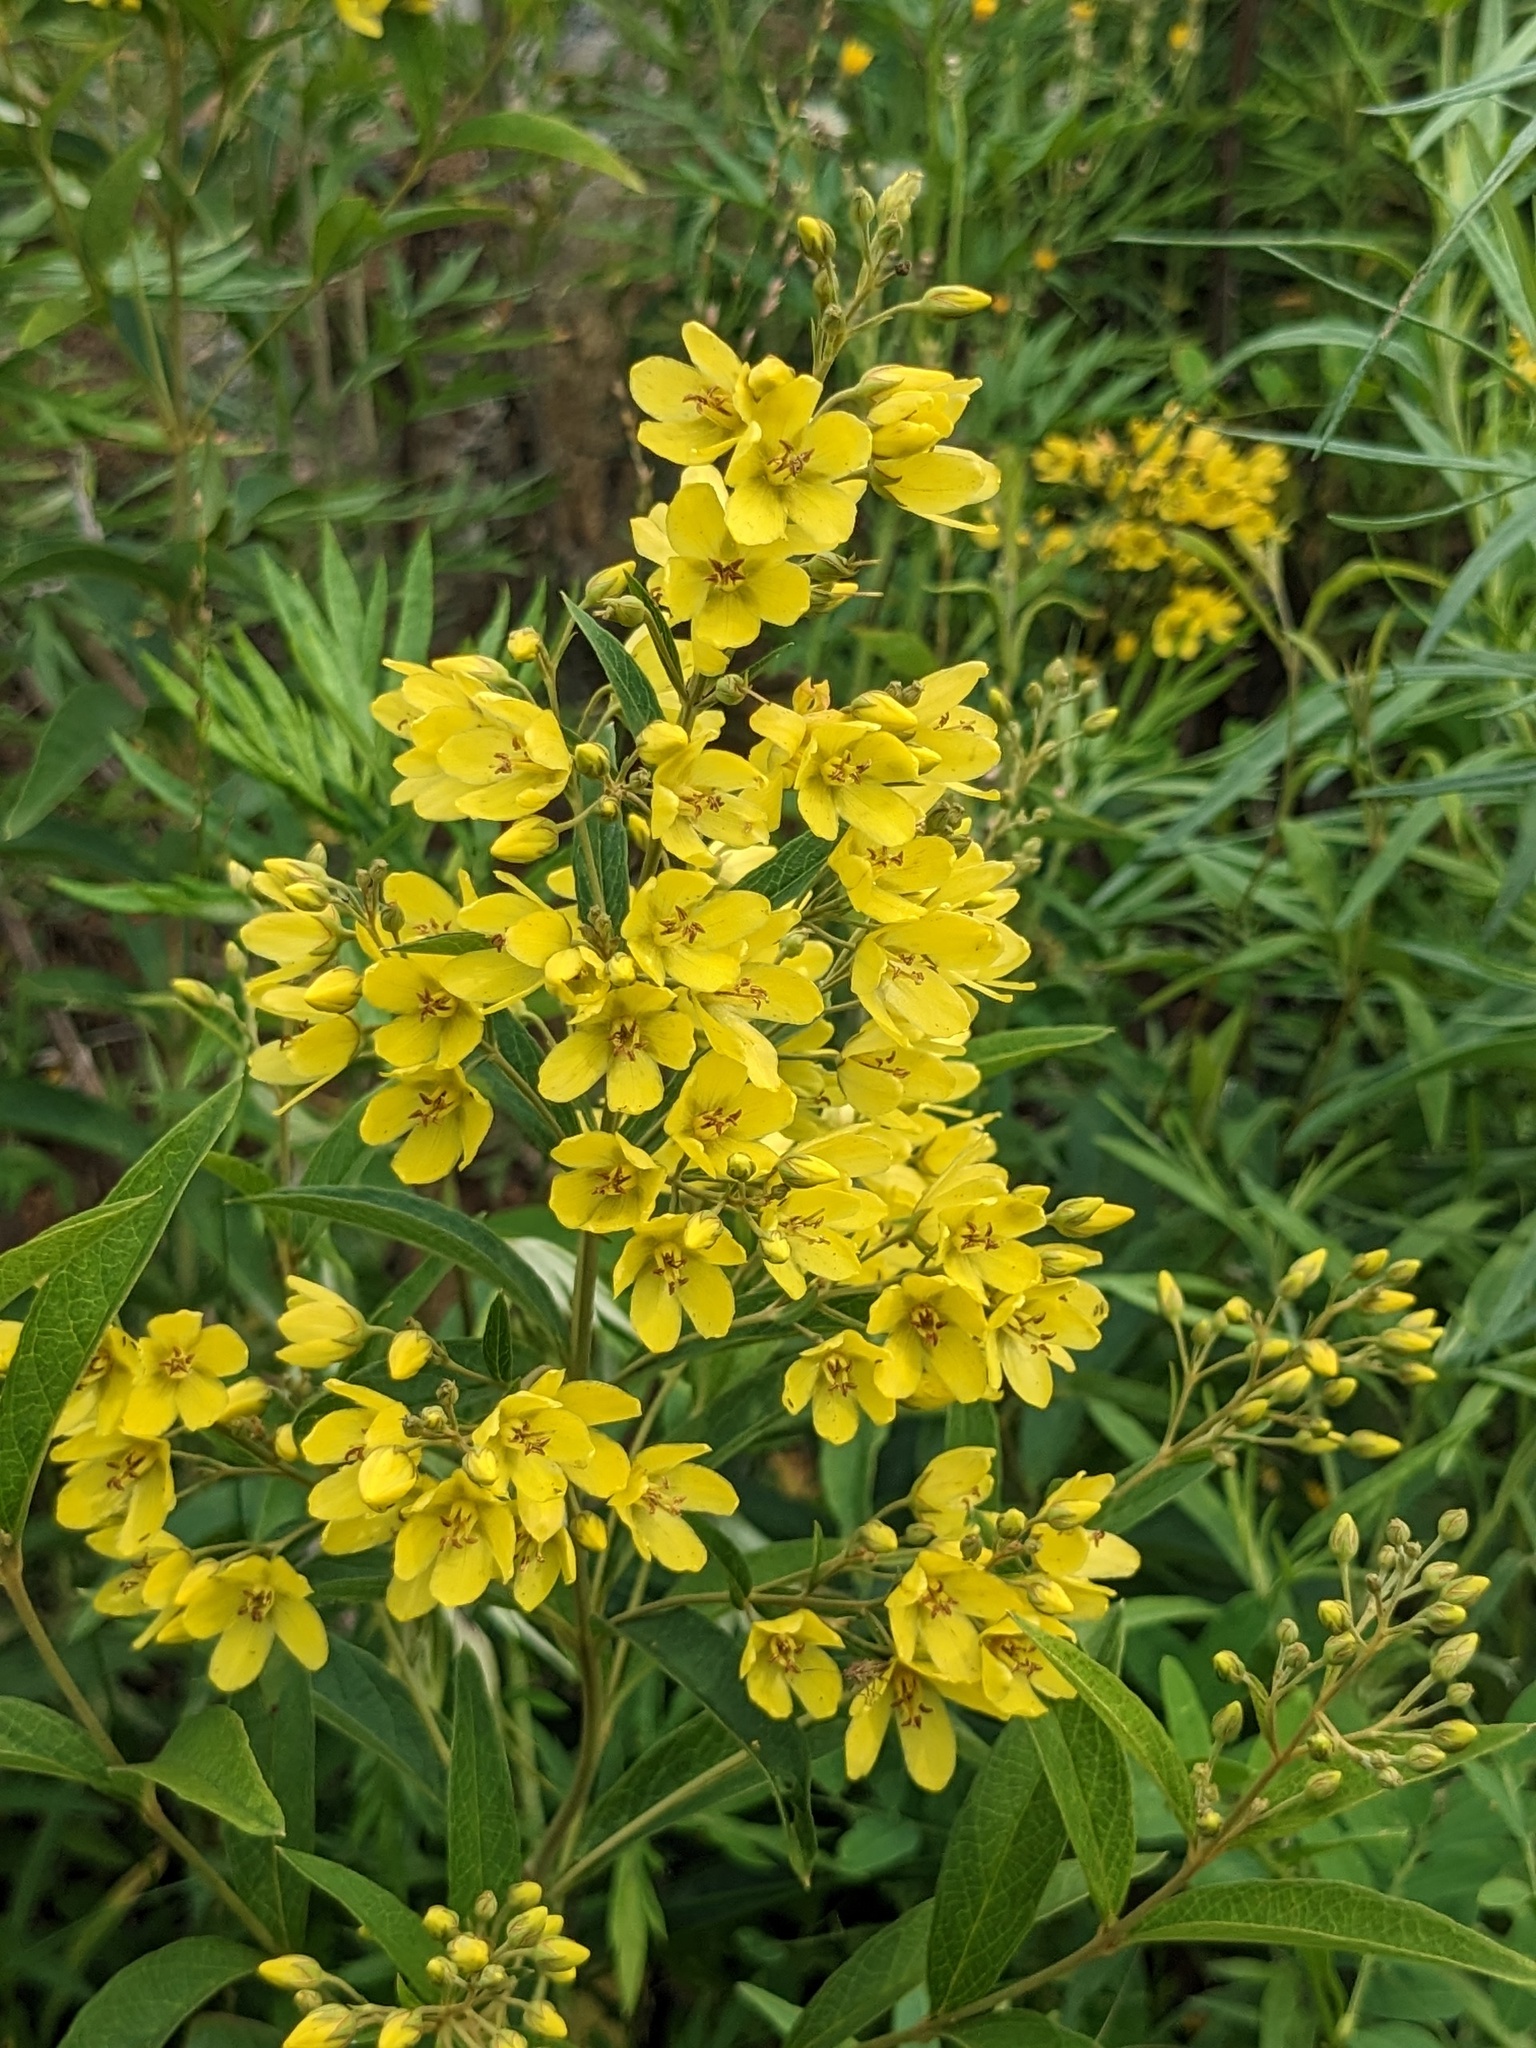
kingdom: Plantae
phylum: Tracheophyta
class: Magnoliopsida
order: Ericales
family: Primulaceae
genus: Lysimachia
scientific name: Lysimachia davurica
